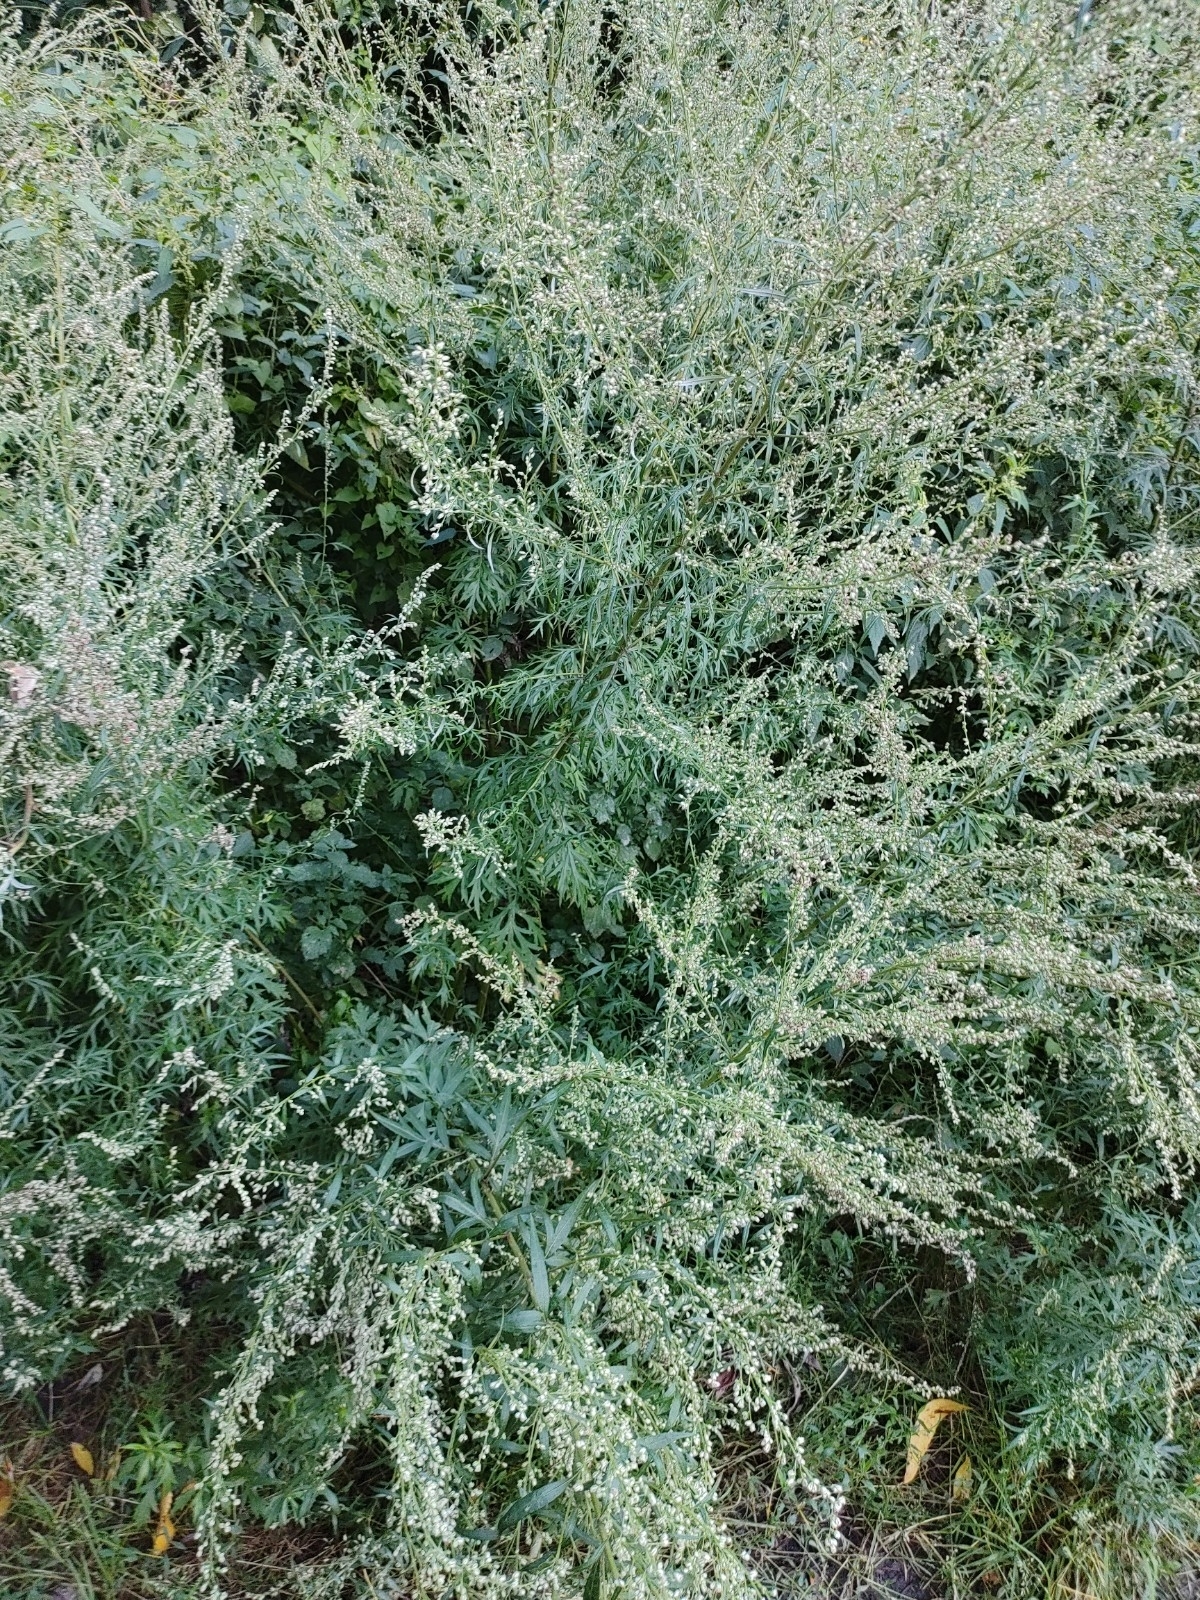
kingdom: Plantae
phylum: Tracheophyta
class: Magnoliopsida
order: Asterales
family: Asteraceae
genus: Artemisia
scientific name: Artemisia vulgaris
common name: Mugwort
